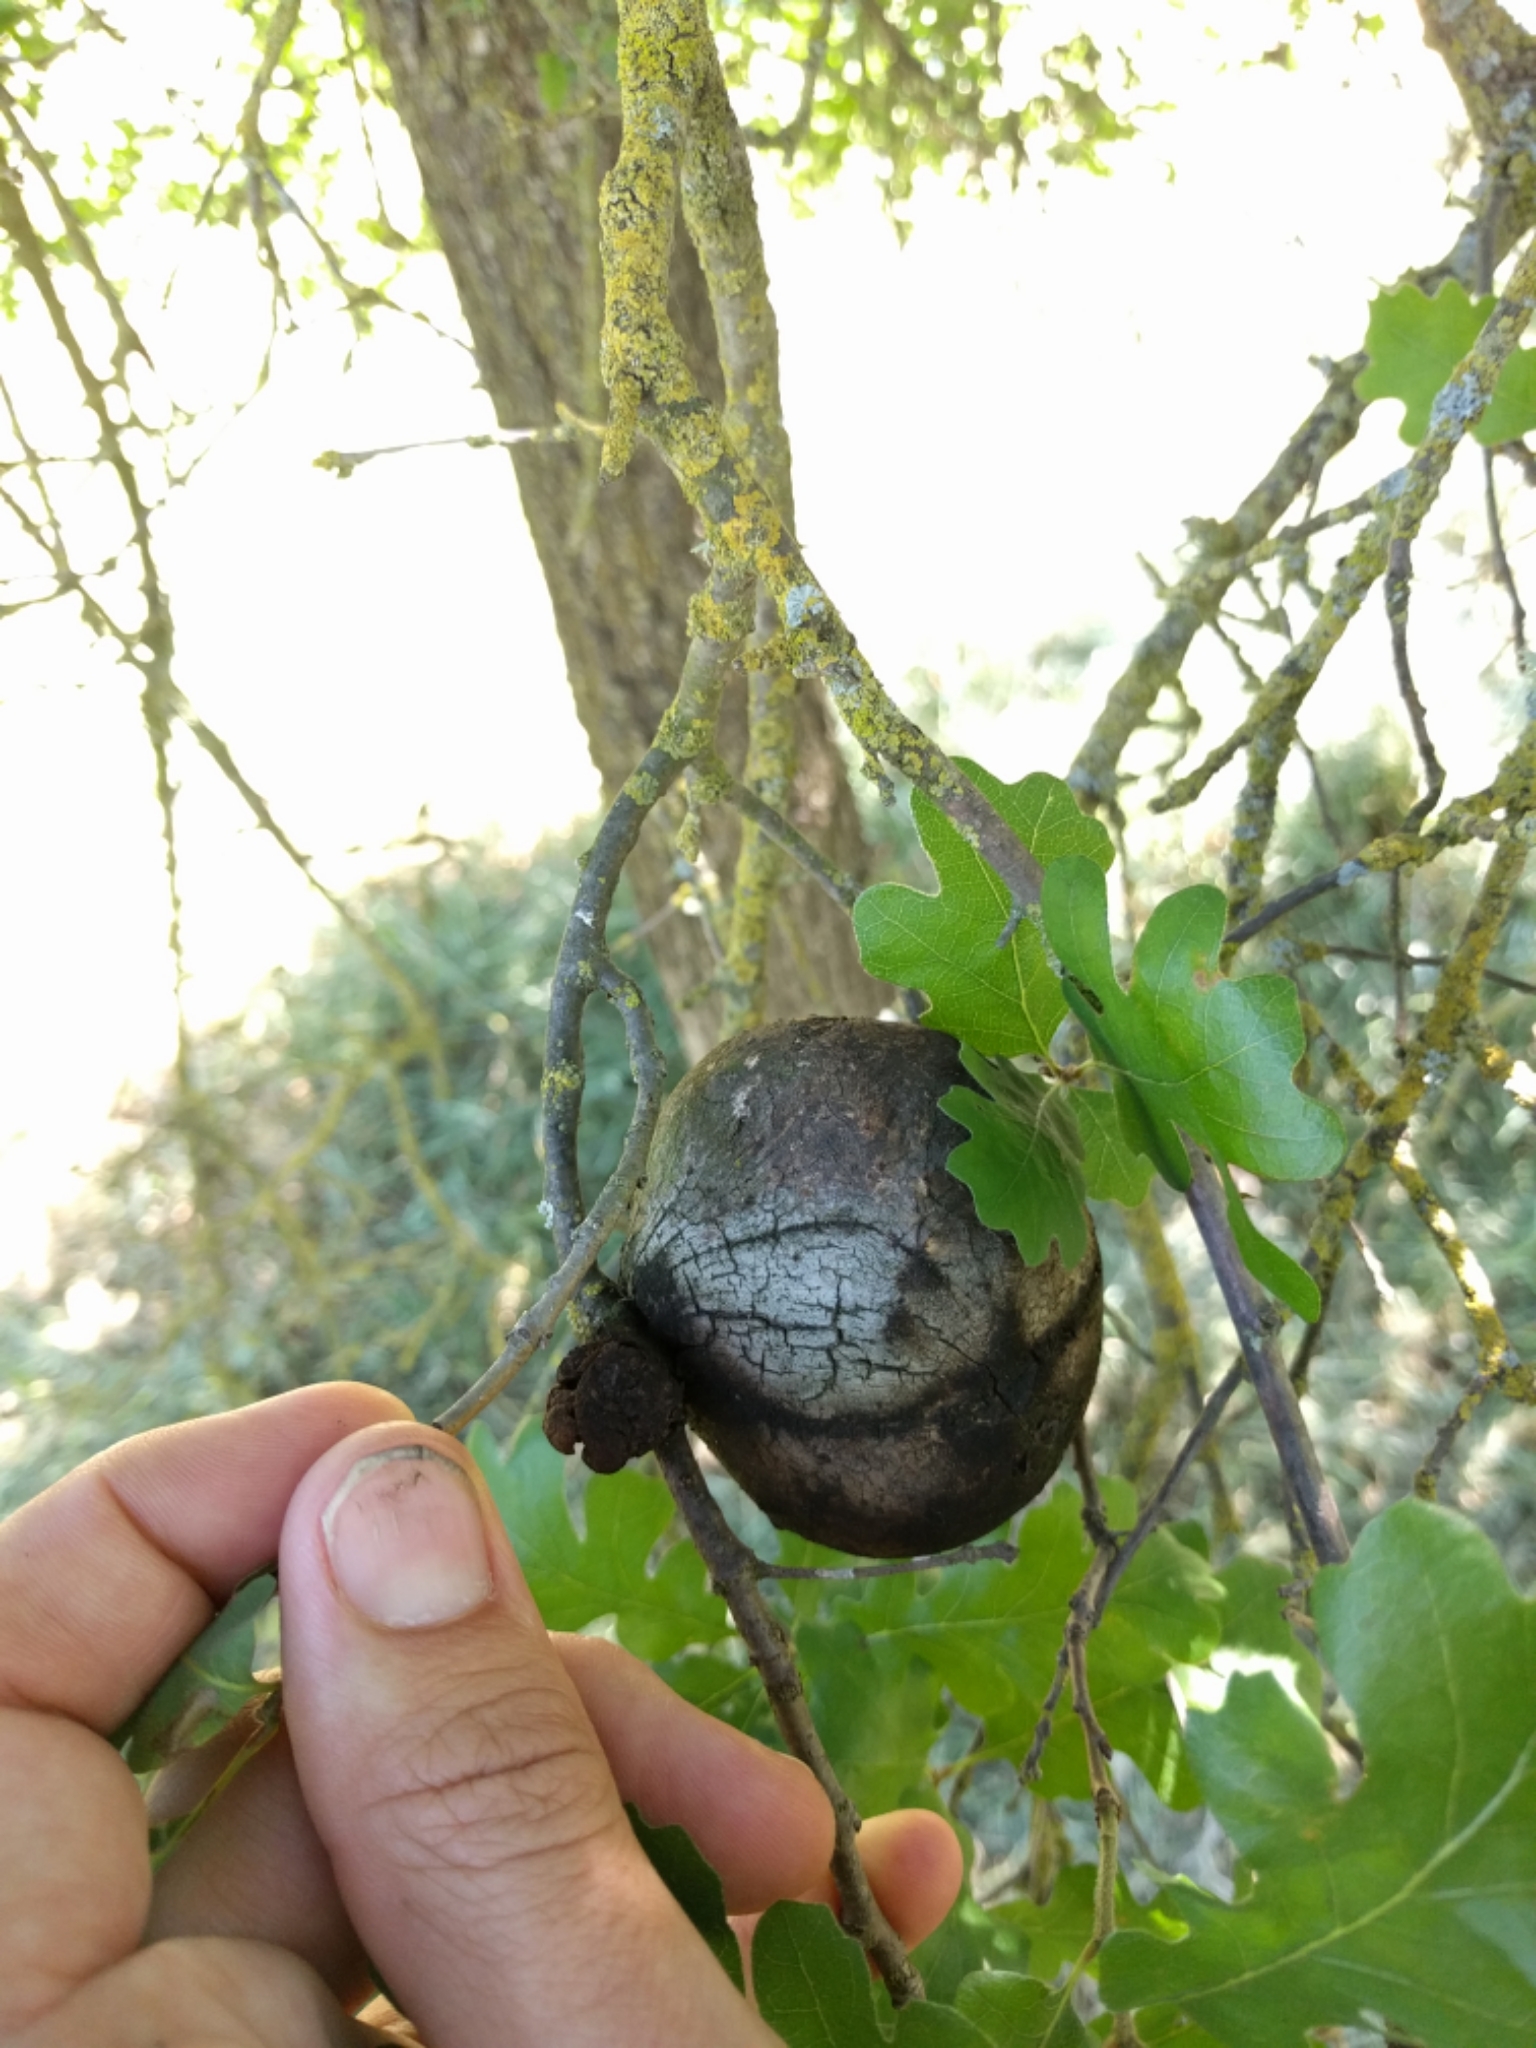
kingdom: Animalia
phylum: Arthropoda
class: Insecta
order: Hymenoptera
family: Cynipidae
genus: Andricus
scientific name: Andricus quercuscalifornicus
